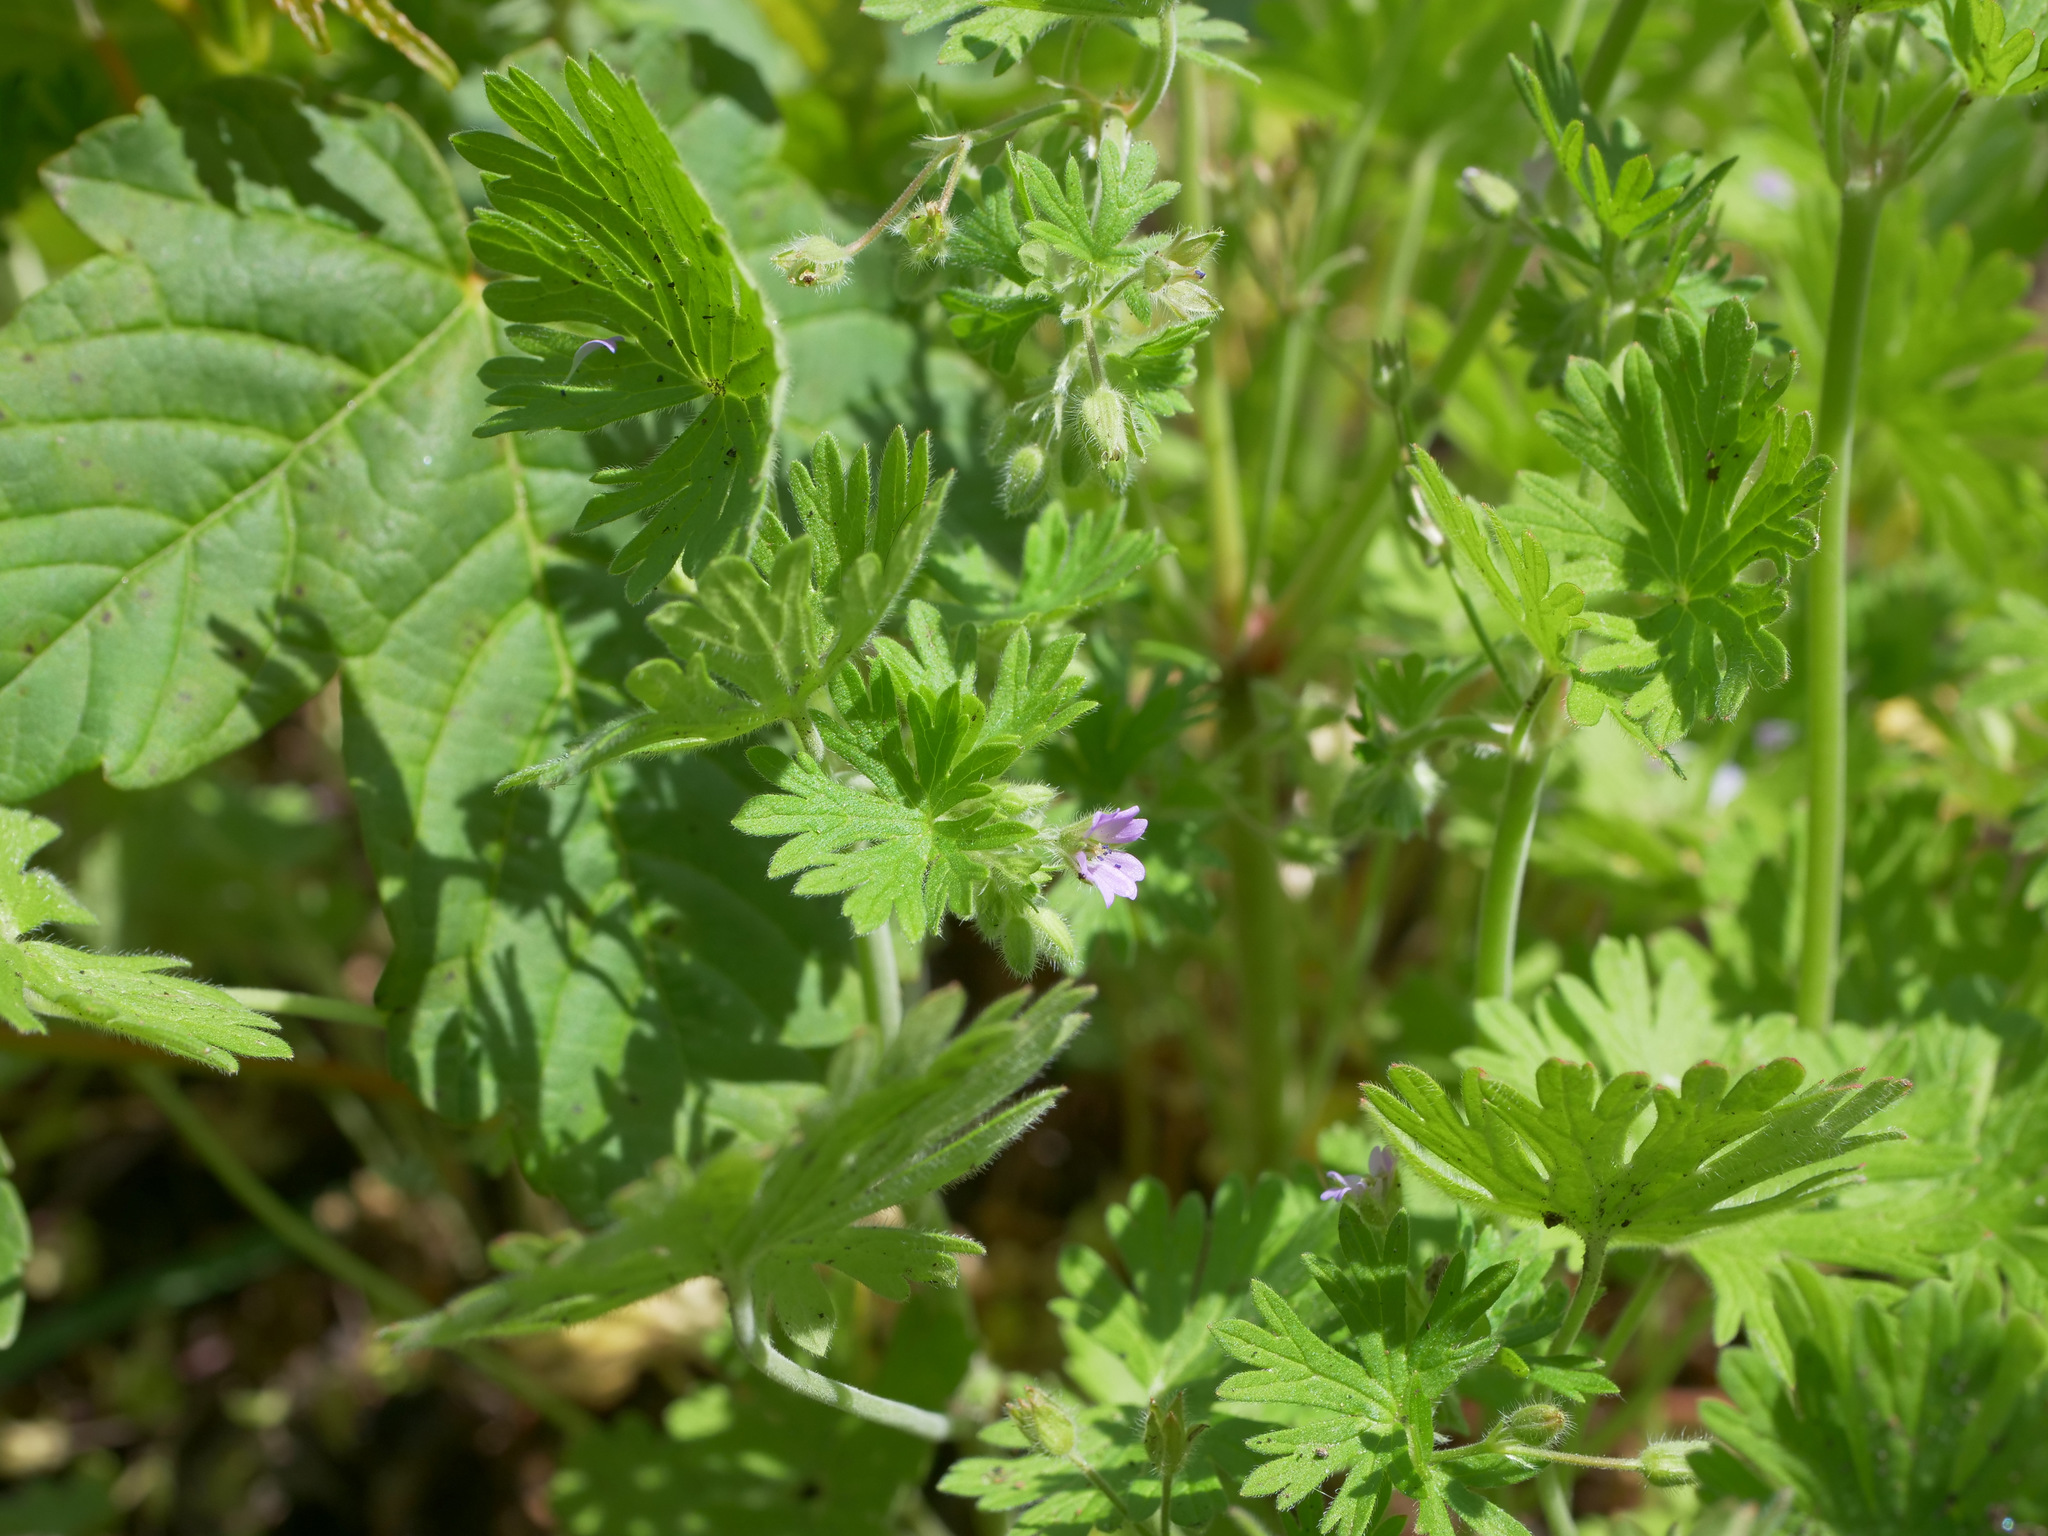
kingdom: Plantae
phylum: Tracheophyta
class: Magnoliopsida
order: Geraniales
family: Geraniaceae
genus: Geranium
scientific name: Geranium pusillum
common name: Small geranium
